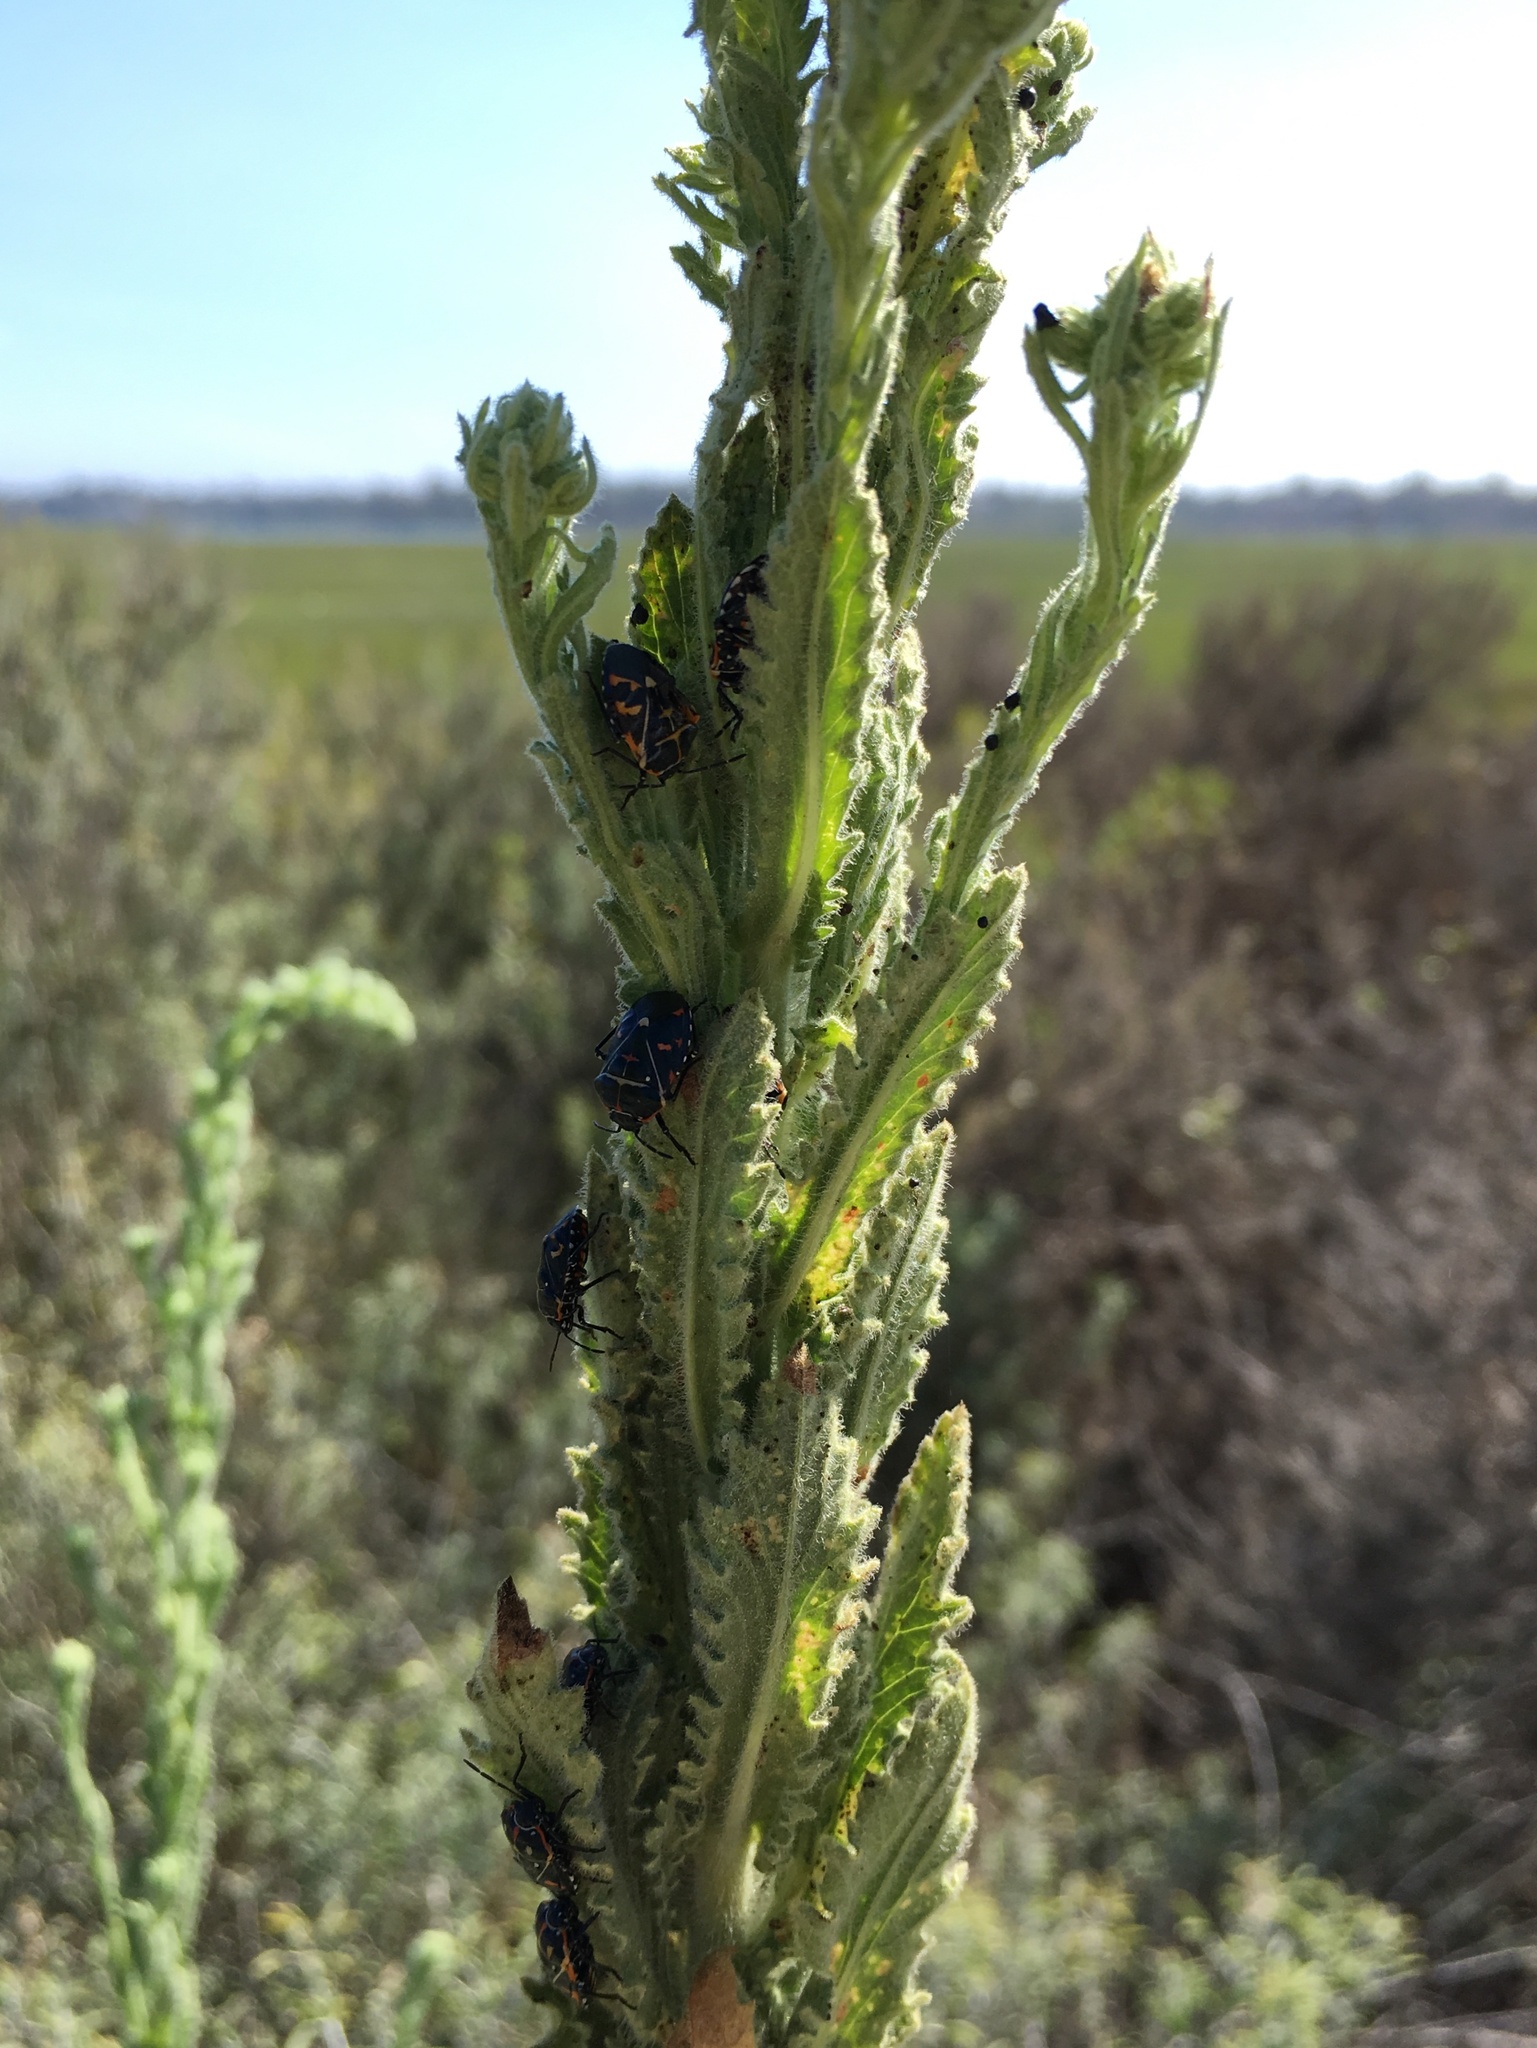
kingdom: Animalia
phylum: Arthropoda
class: Insecta
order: Hemiptera
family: Pentatomidae
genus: Murgantia
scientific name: Murgantia histrionica
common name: Harlequin bug
